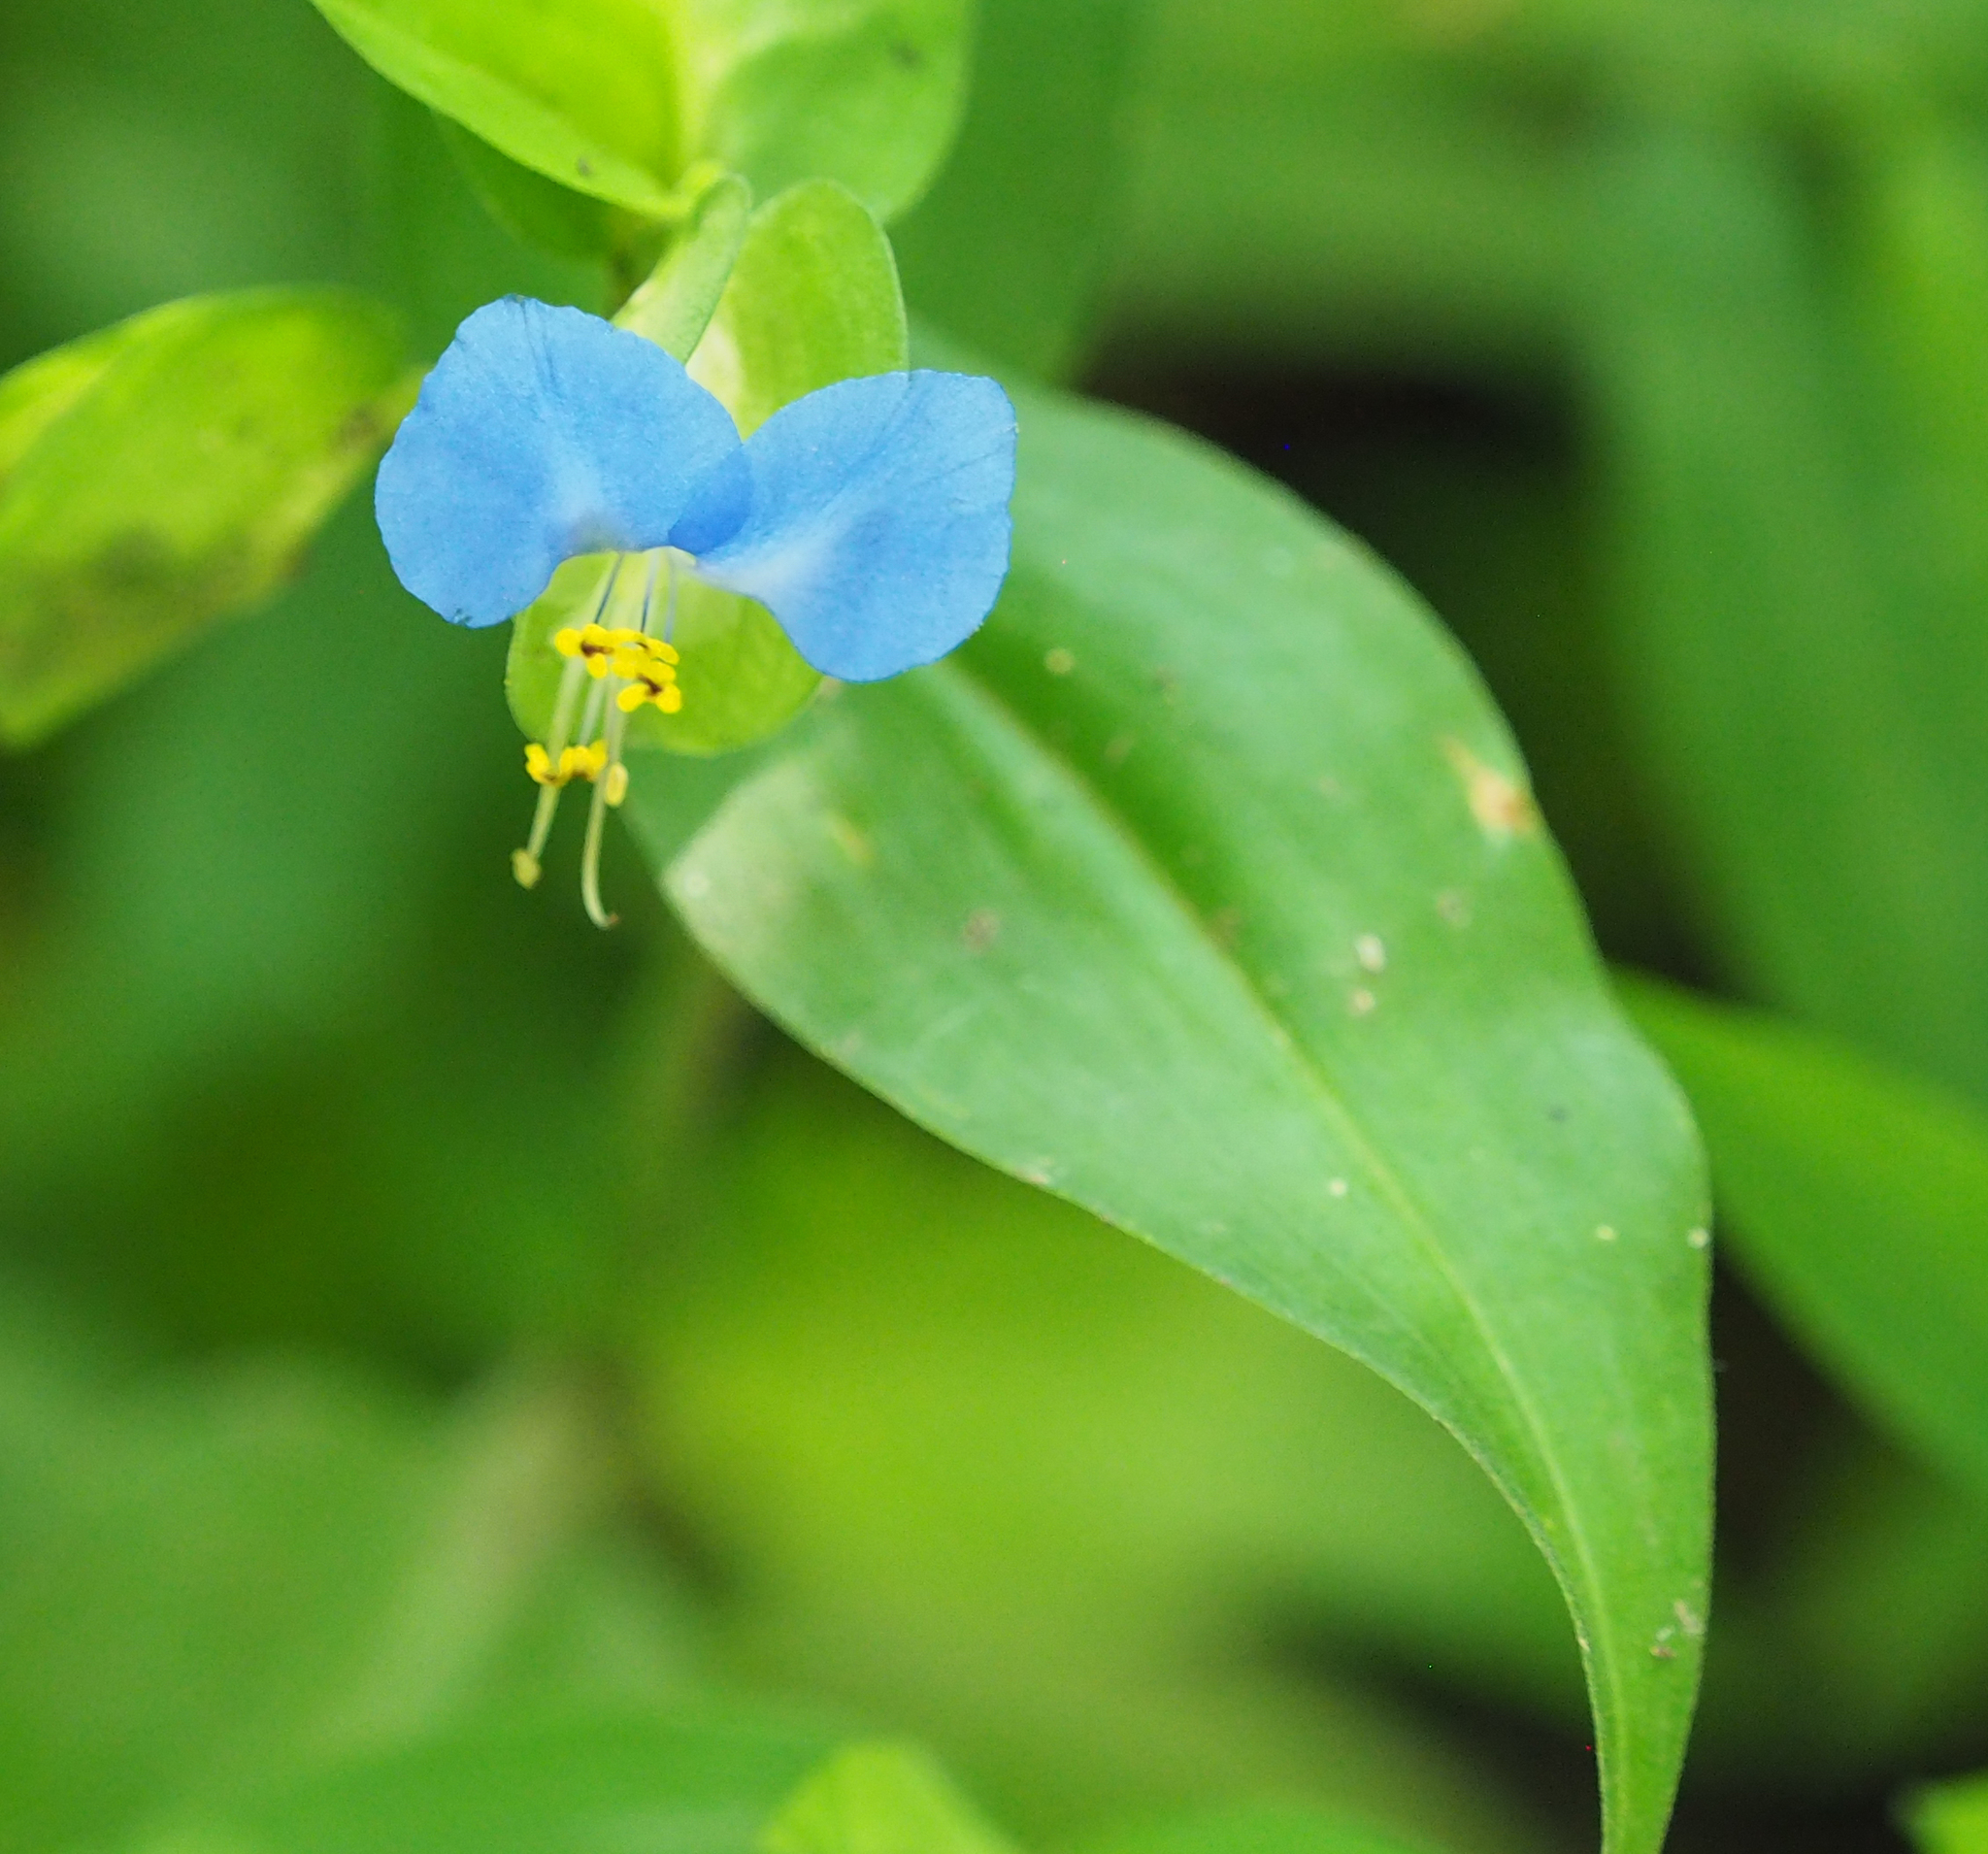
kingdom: Plantae
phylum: Tracheophyta
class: Liliopsida
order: Commelinales
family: Commelinaceae
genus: Commelina
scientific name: Commelina communis
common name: Asiatic dayflower
